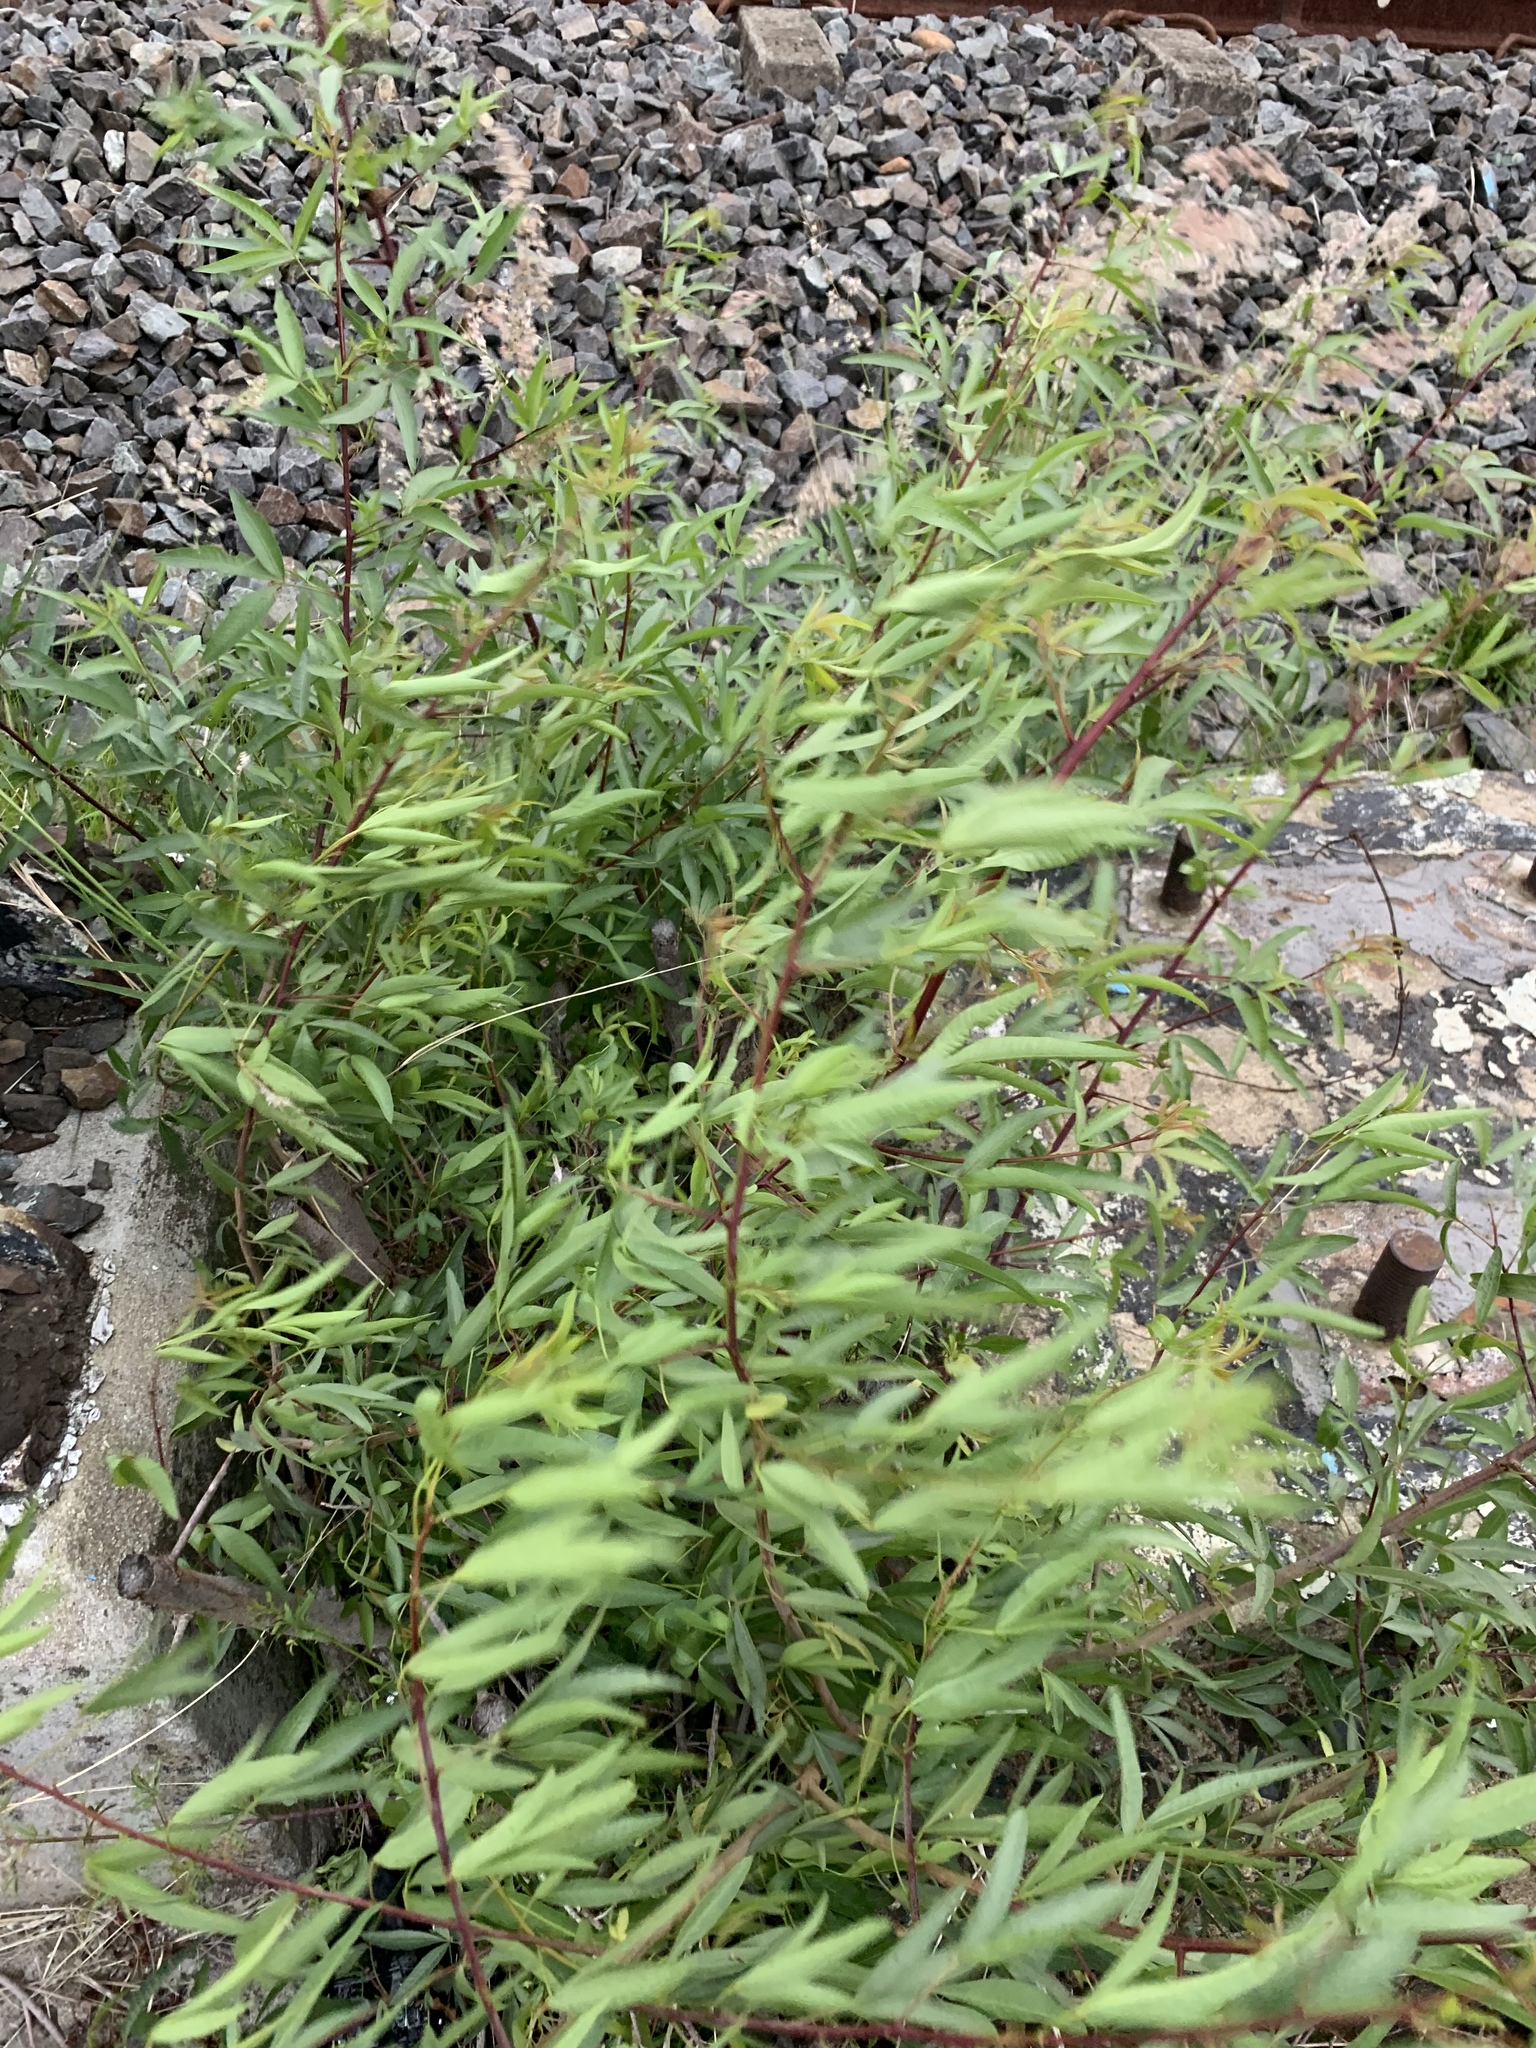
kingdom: Plantae
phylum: Tracheophyta
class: Magnoliopsida
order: Sapindales
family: Anacardiaceae
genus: Searsia
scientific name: Searsia pendulina
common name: White karee
